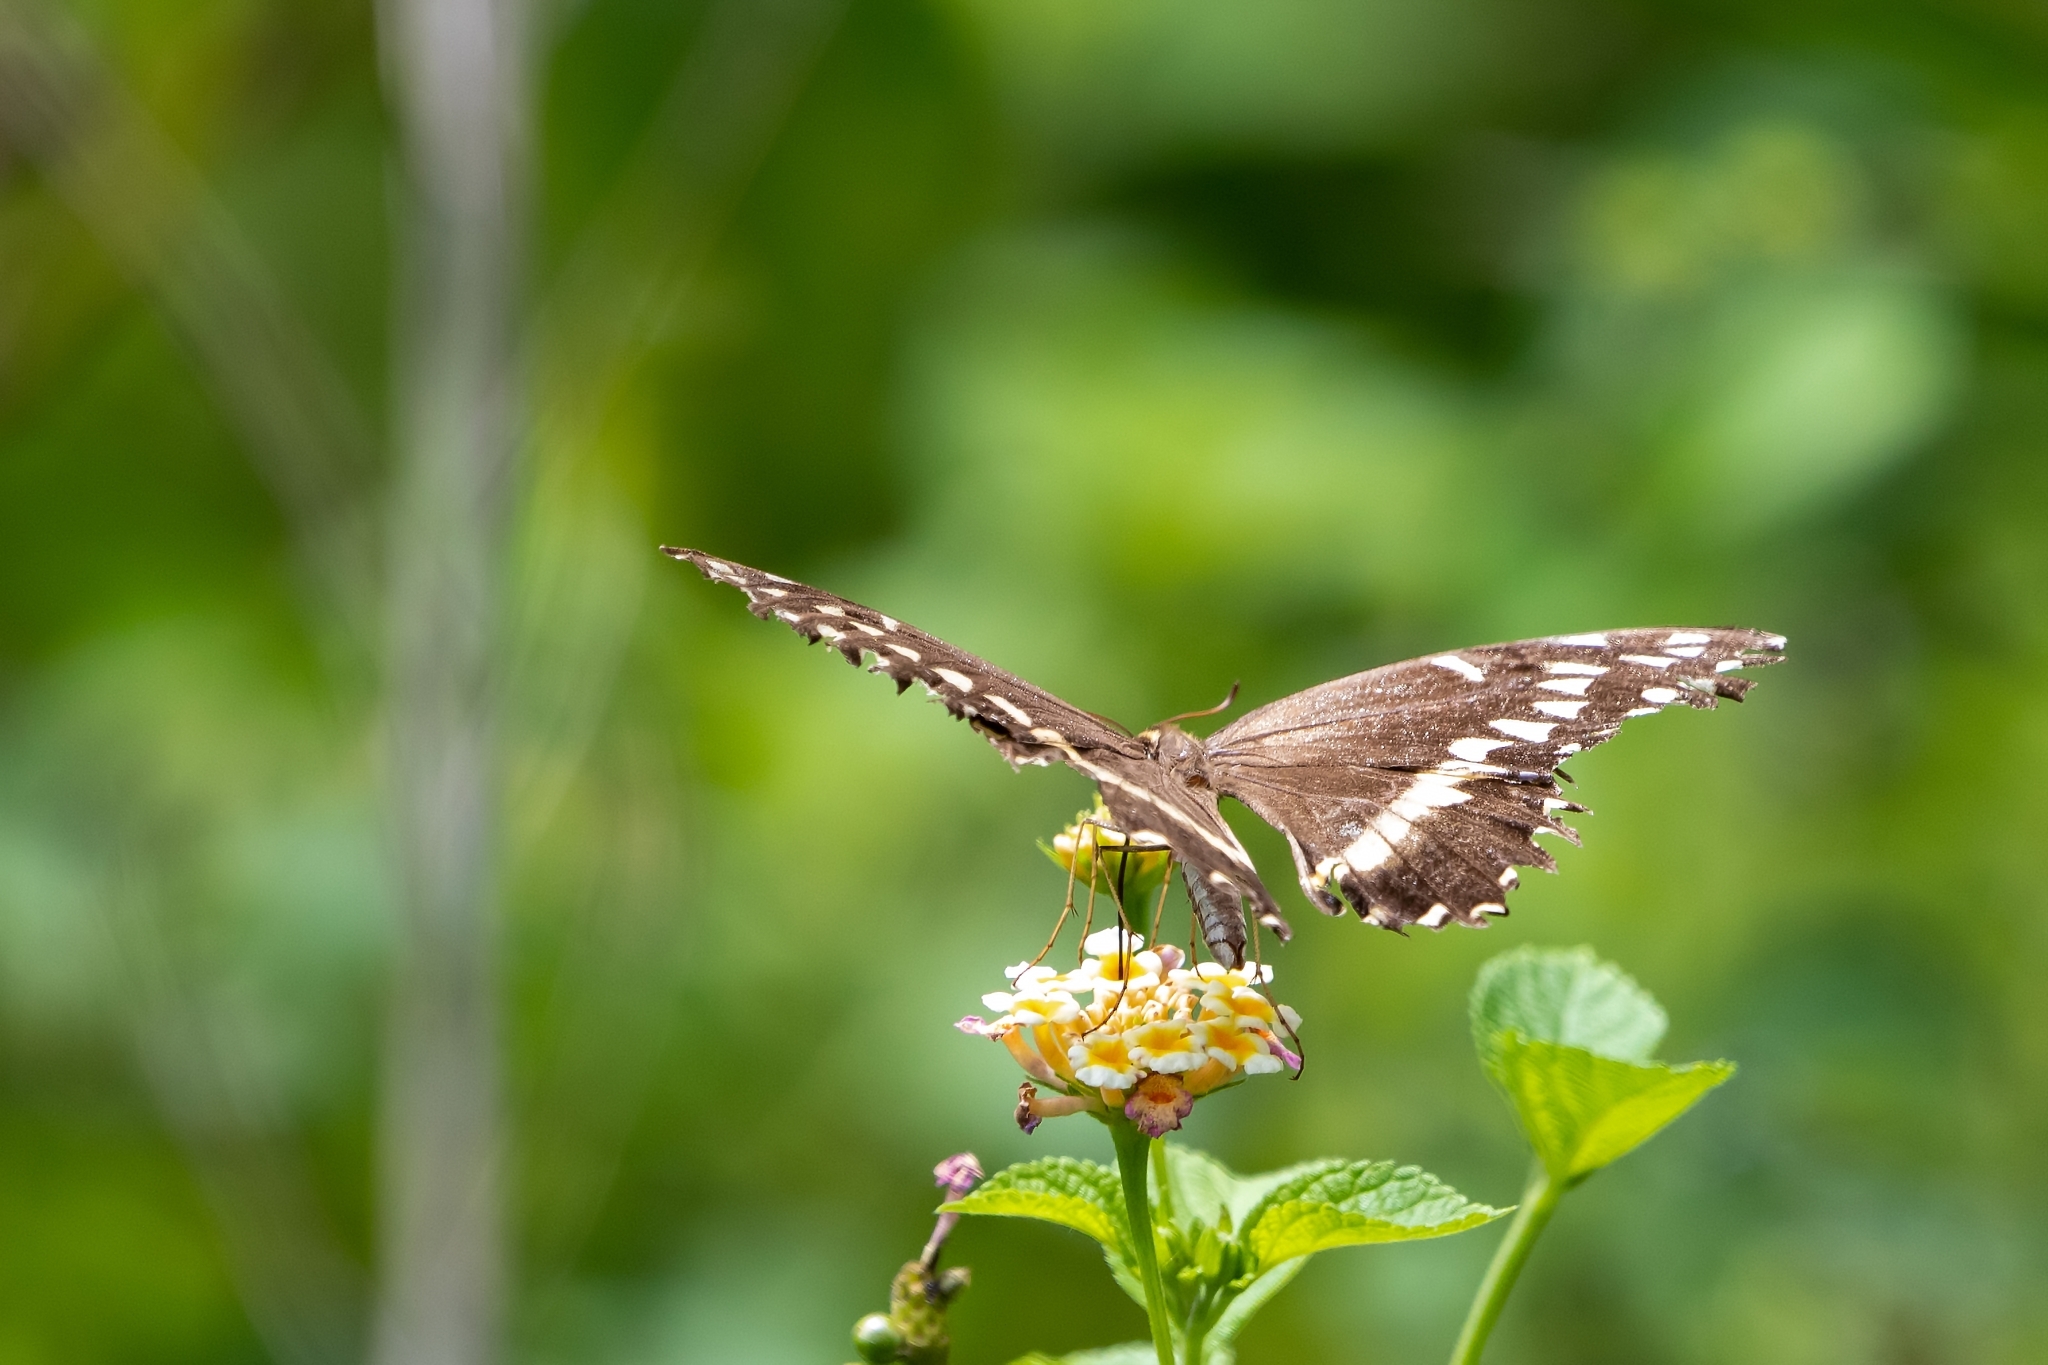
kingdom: Animalia
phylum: Arthropoda
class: Insecta
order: Lepidoptera
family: Papilionidae
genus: Papilio
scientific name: Papilio palamedes
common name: Palamedes swallowtail
